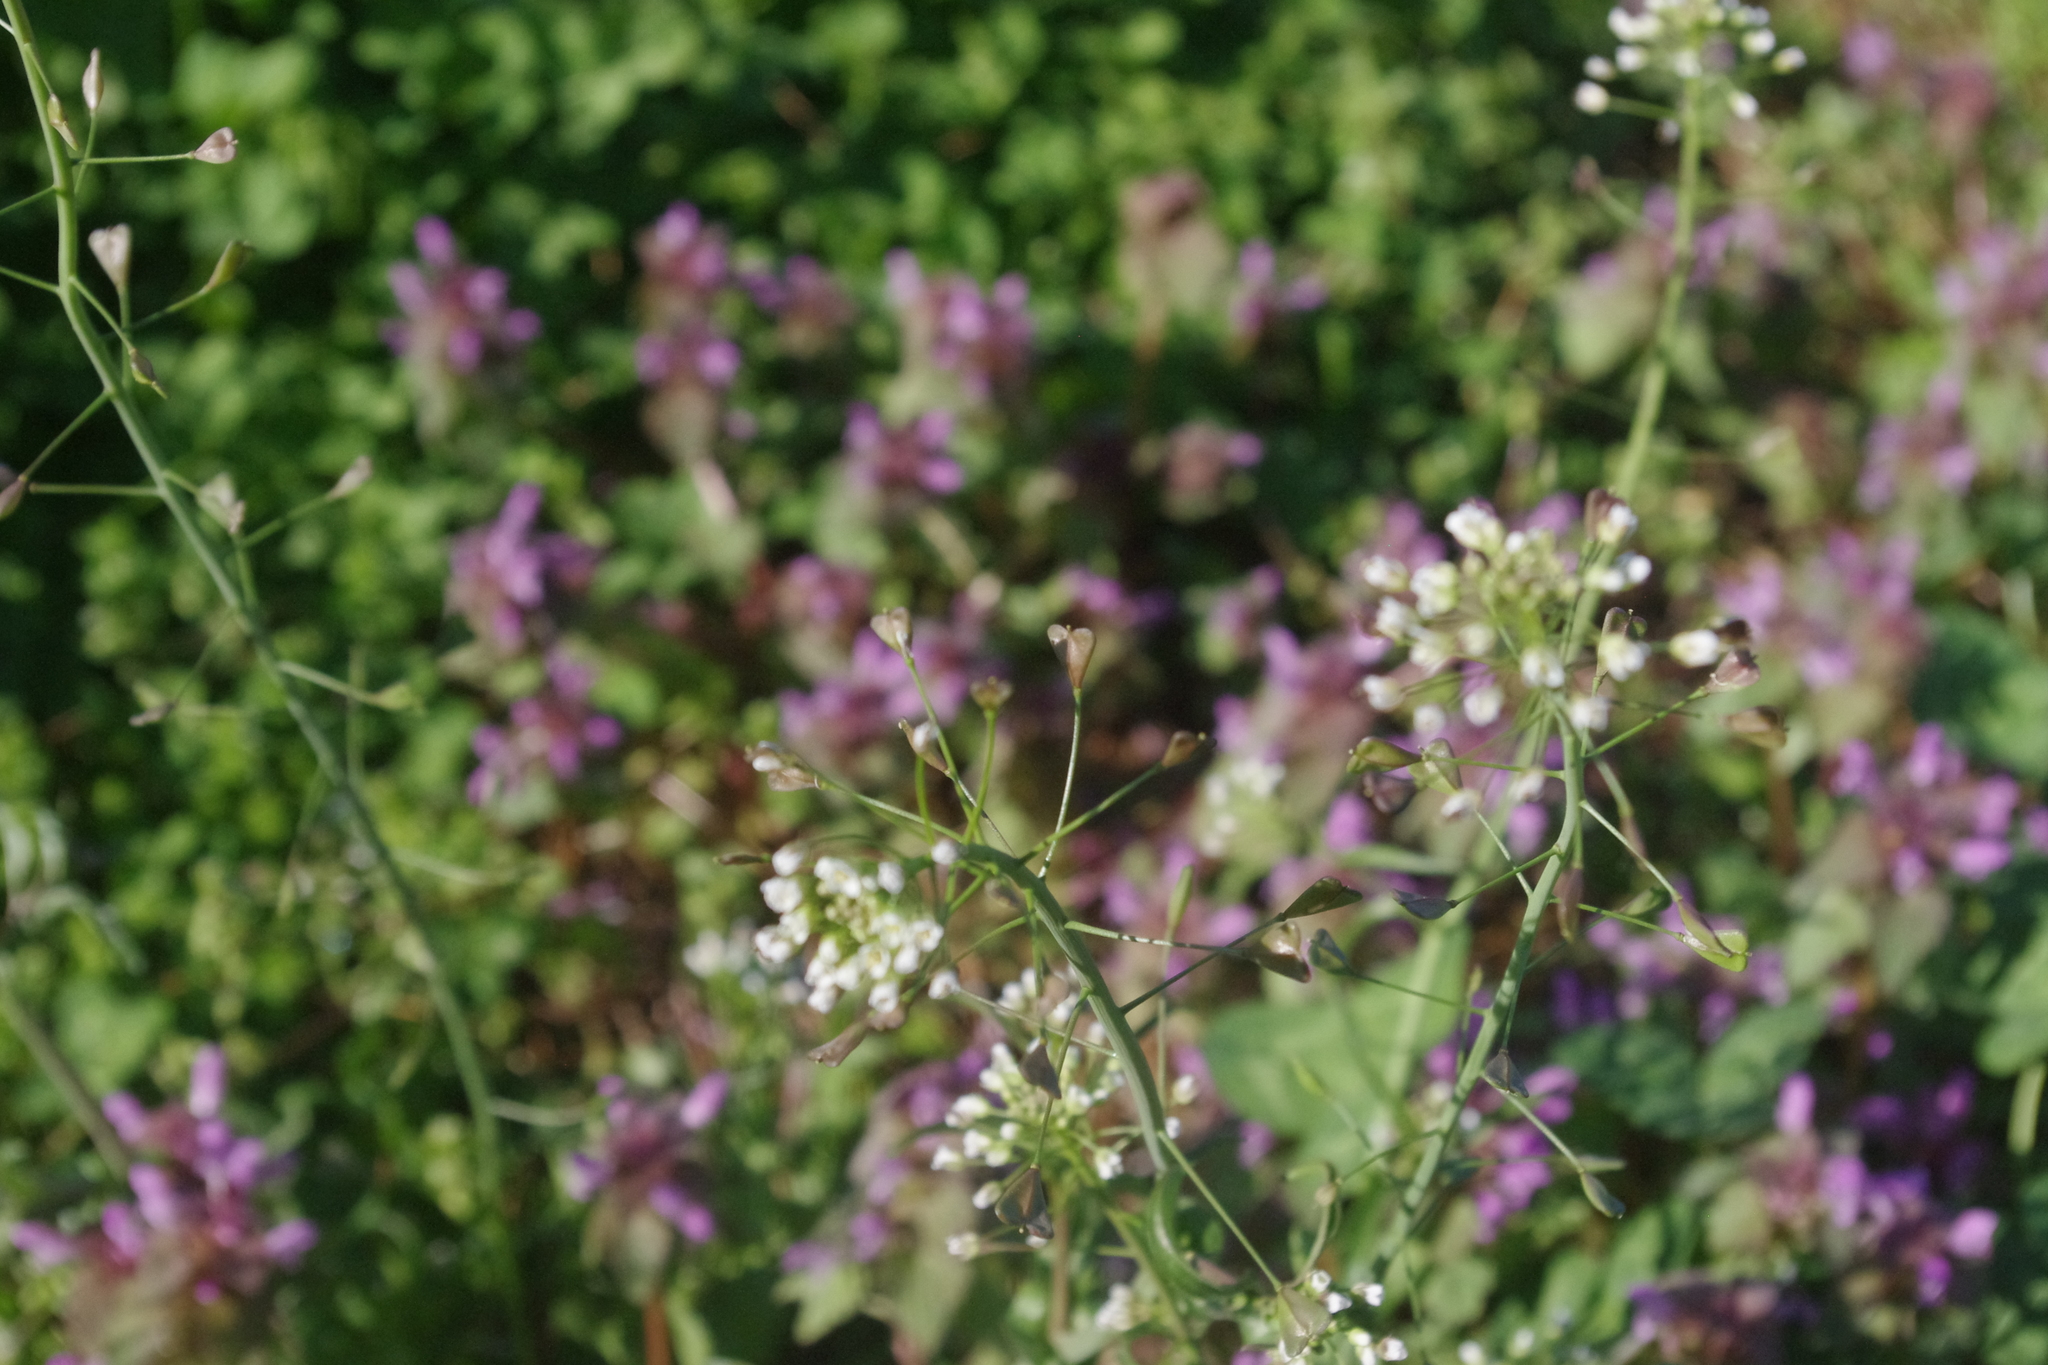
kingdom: Plantae
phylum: Tracheophyta
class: Magnoliopsida
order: Brassicales
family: Brassicaceae
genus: Capsella
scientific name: Capsella bursa-pastoris
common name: Shepherd's purse
